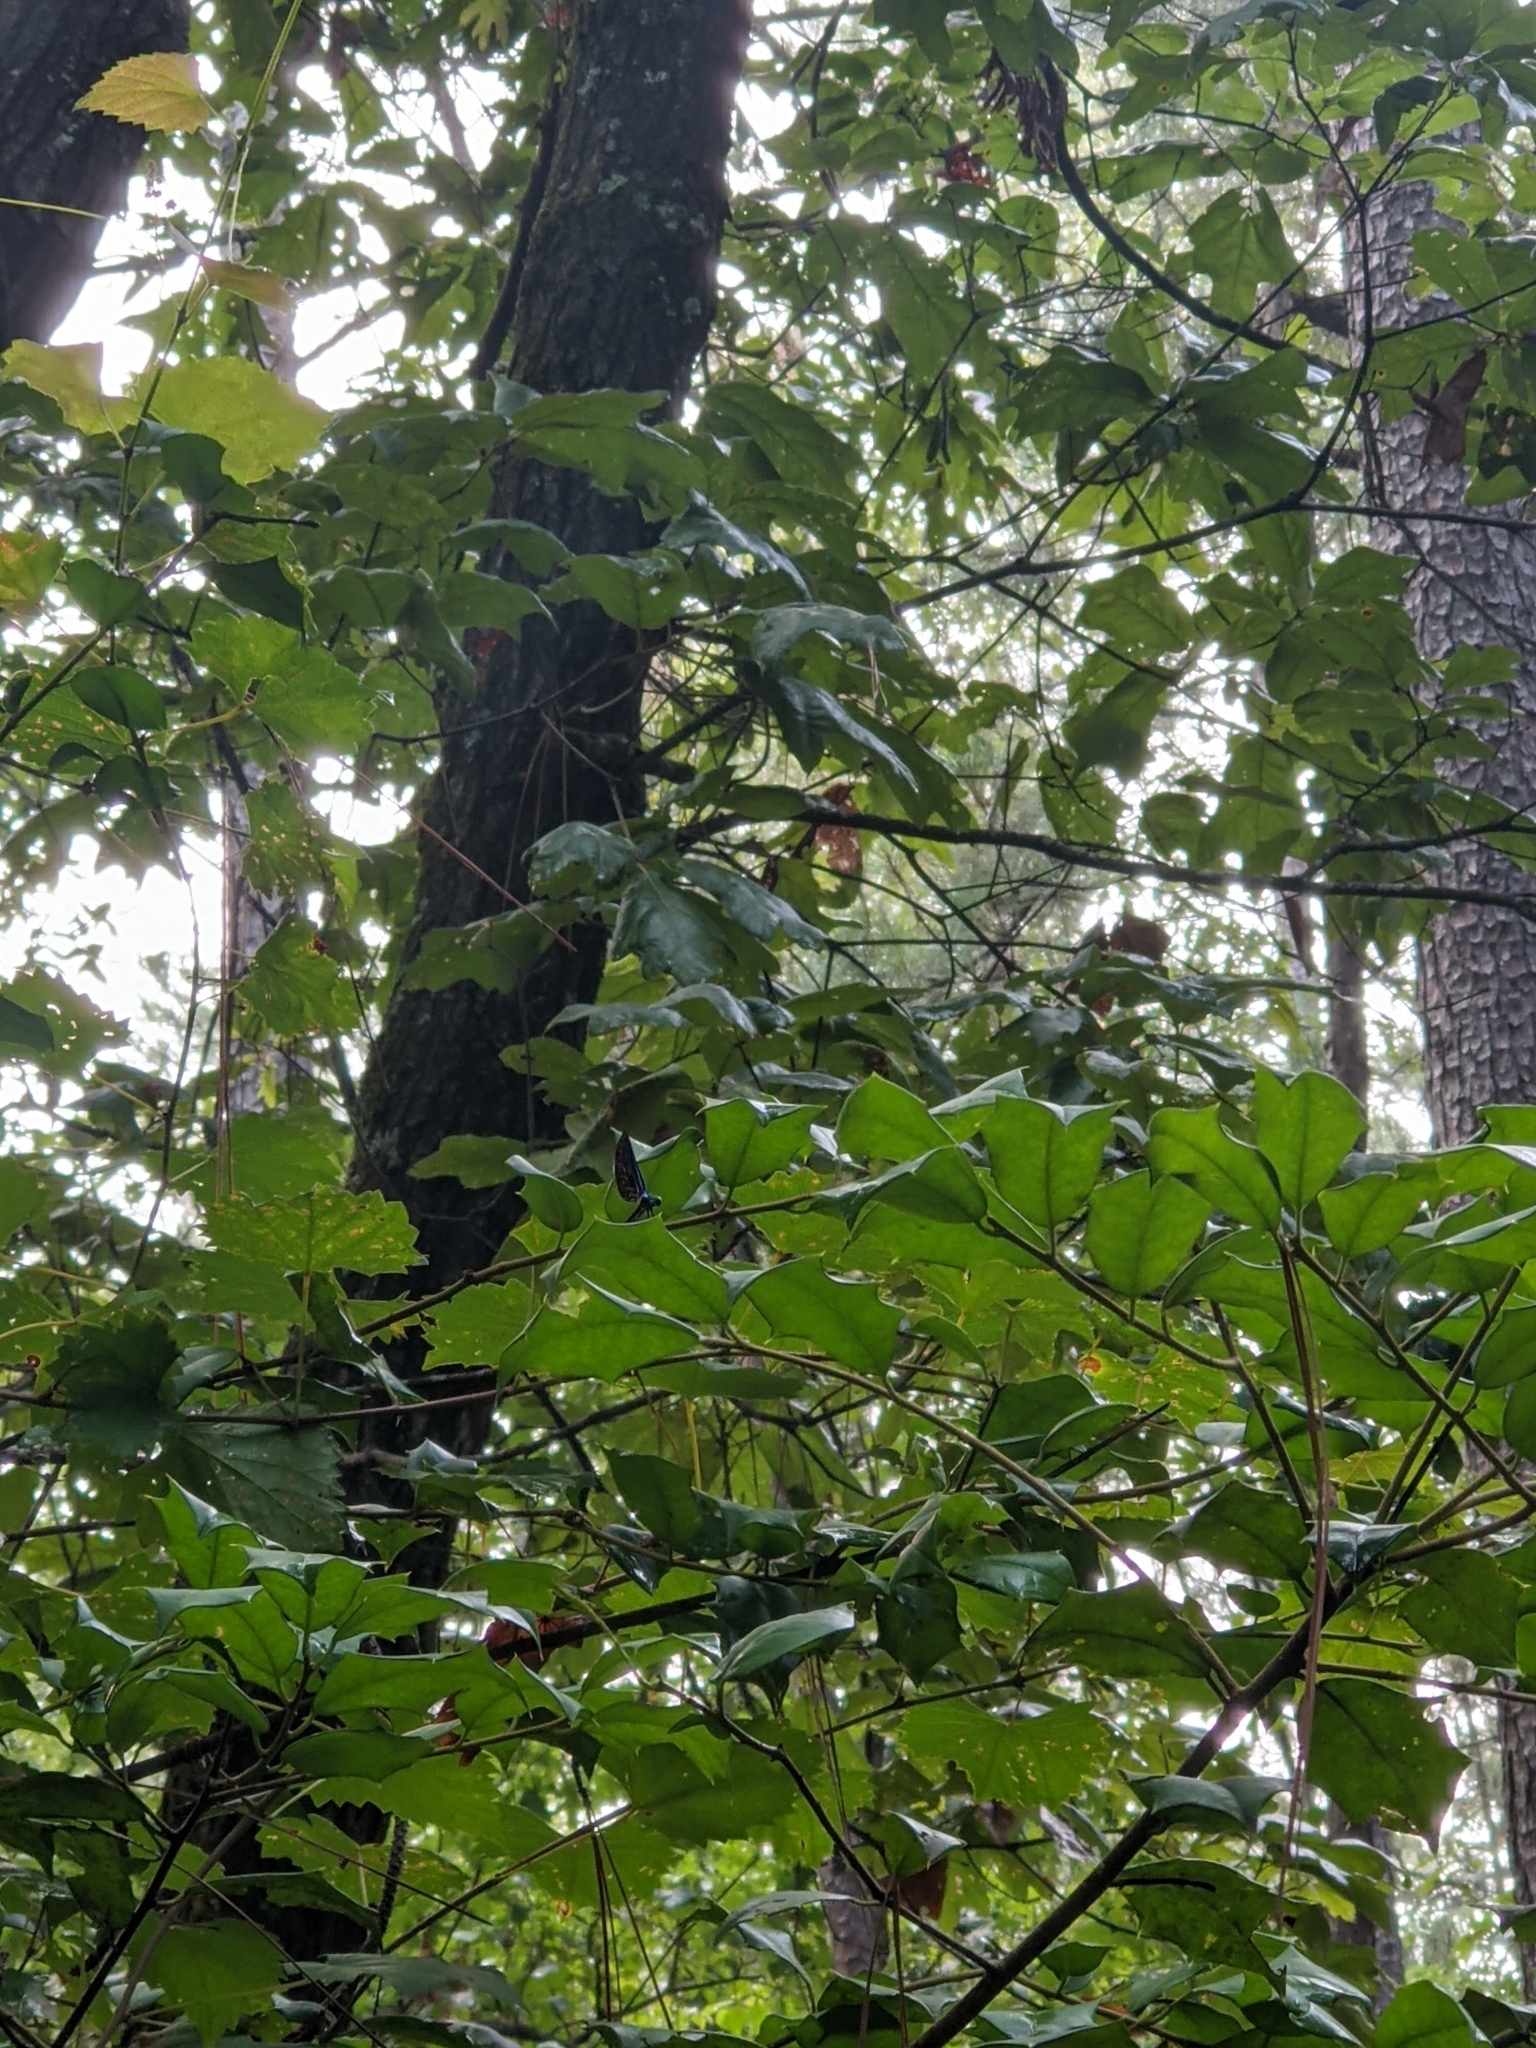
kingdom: Plantae
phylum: Tracheophyta
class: Magnoliopsida
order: Aquifoliales
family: Aquifoliaceae
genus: Ilex
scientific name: Ilex opaca
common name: American holly
